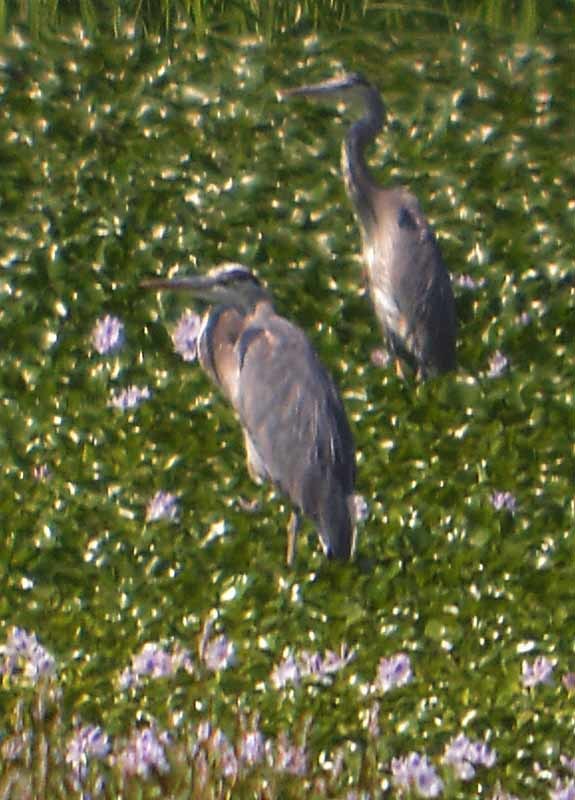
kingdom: Animalia
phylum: Chordata
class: Aves
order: Pelecaniformes
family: Ardeidae
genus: Ardea
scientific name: Ardea herodias
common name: Great blue heron
